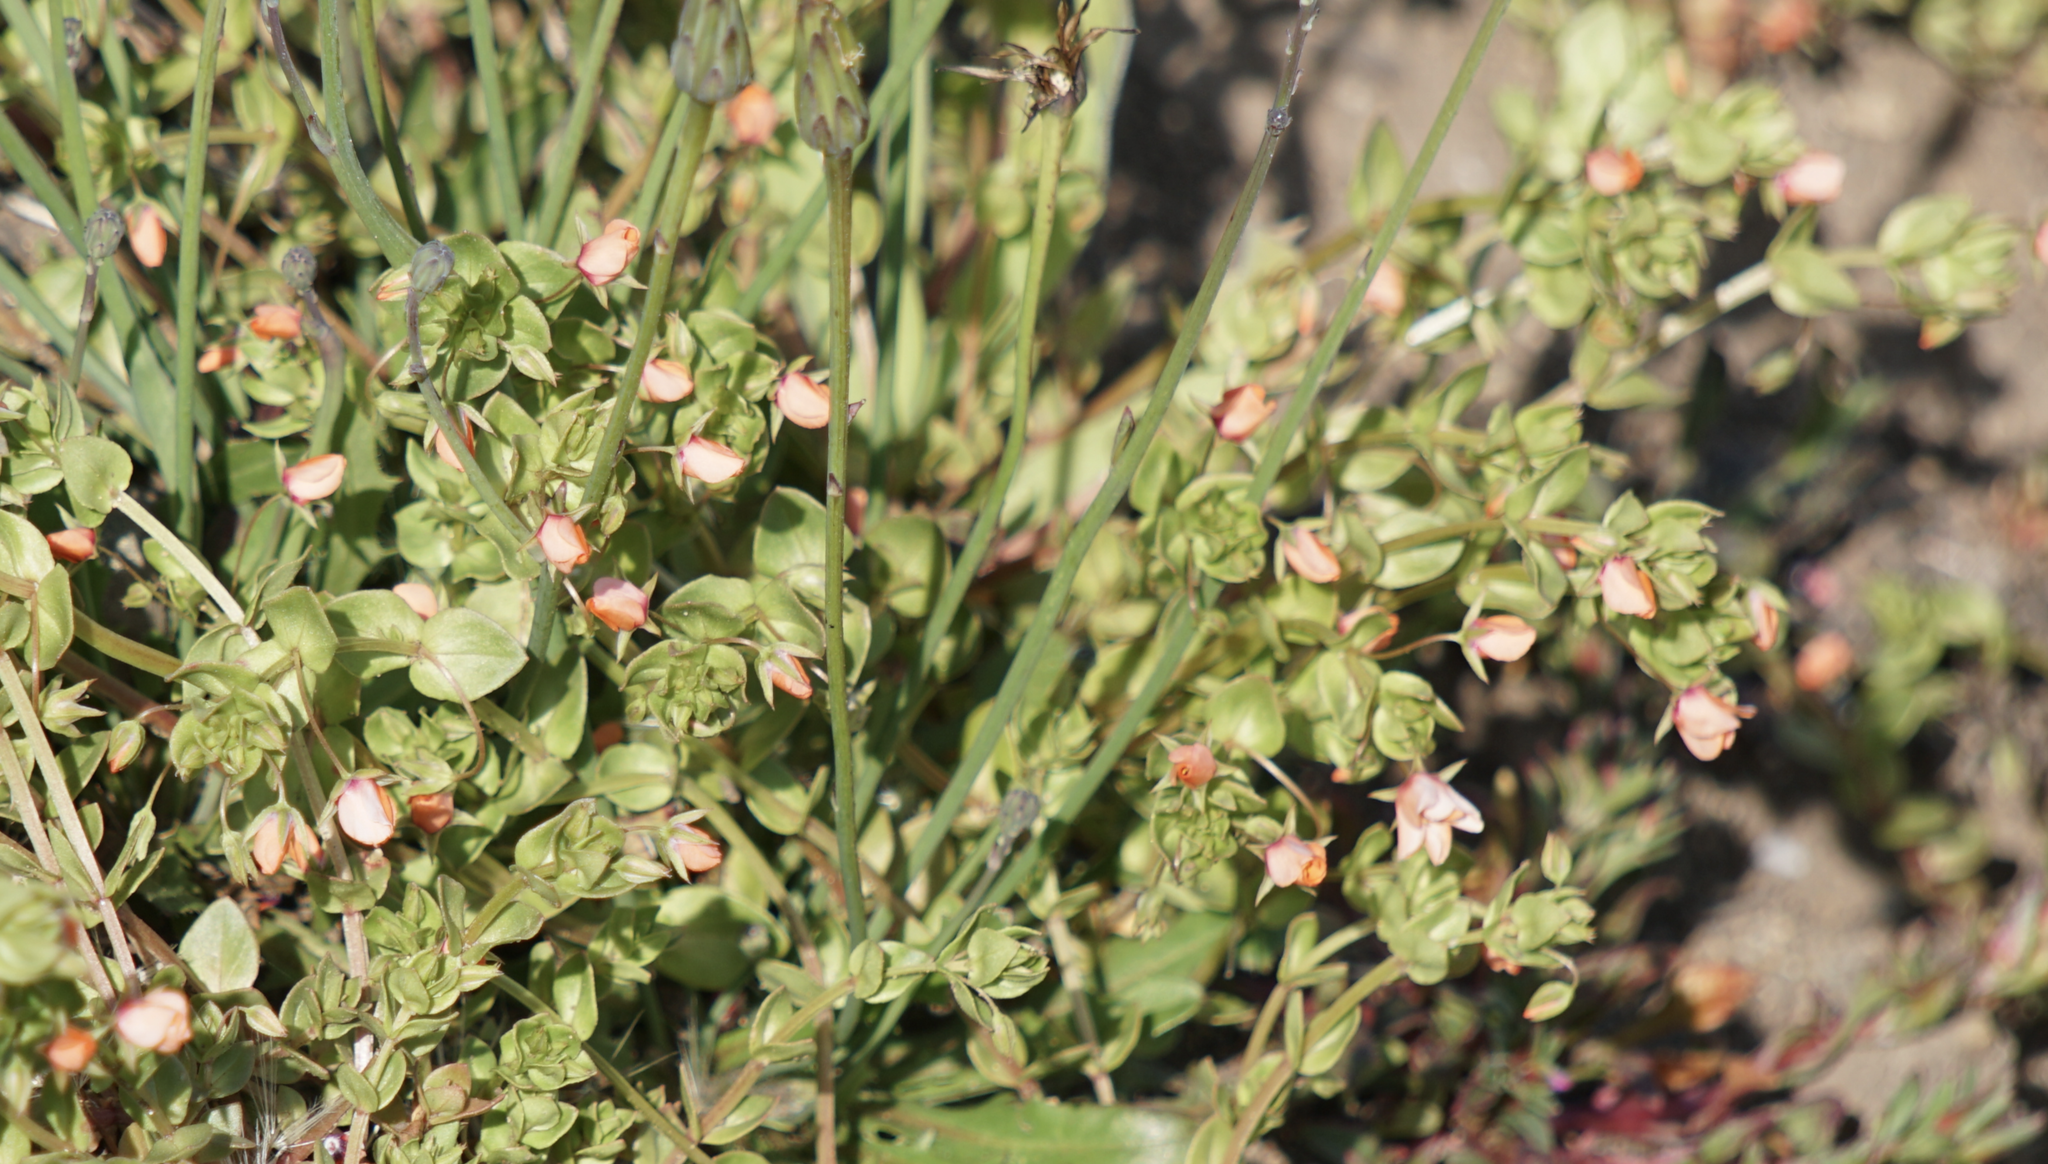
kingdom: Plantae
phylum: Tracheophyta
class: Magnoliopsida
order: Ericales
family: Primulaceae
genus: Lysimachia
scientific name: Lysimachia arvensis
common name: Scarlet pimpernel
